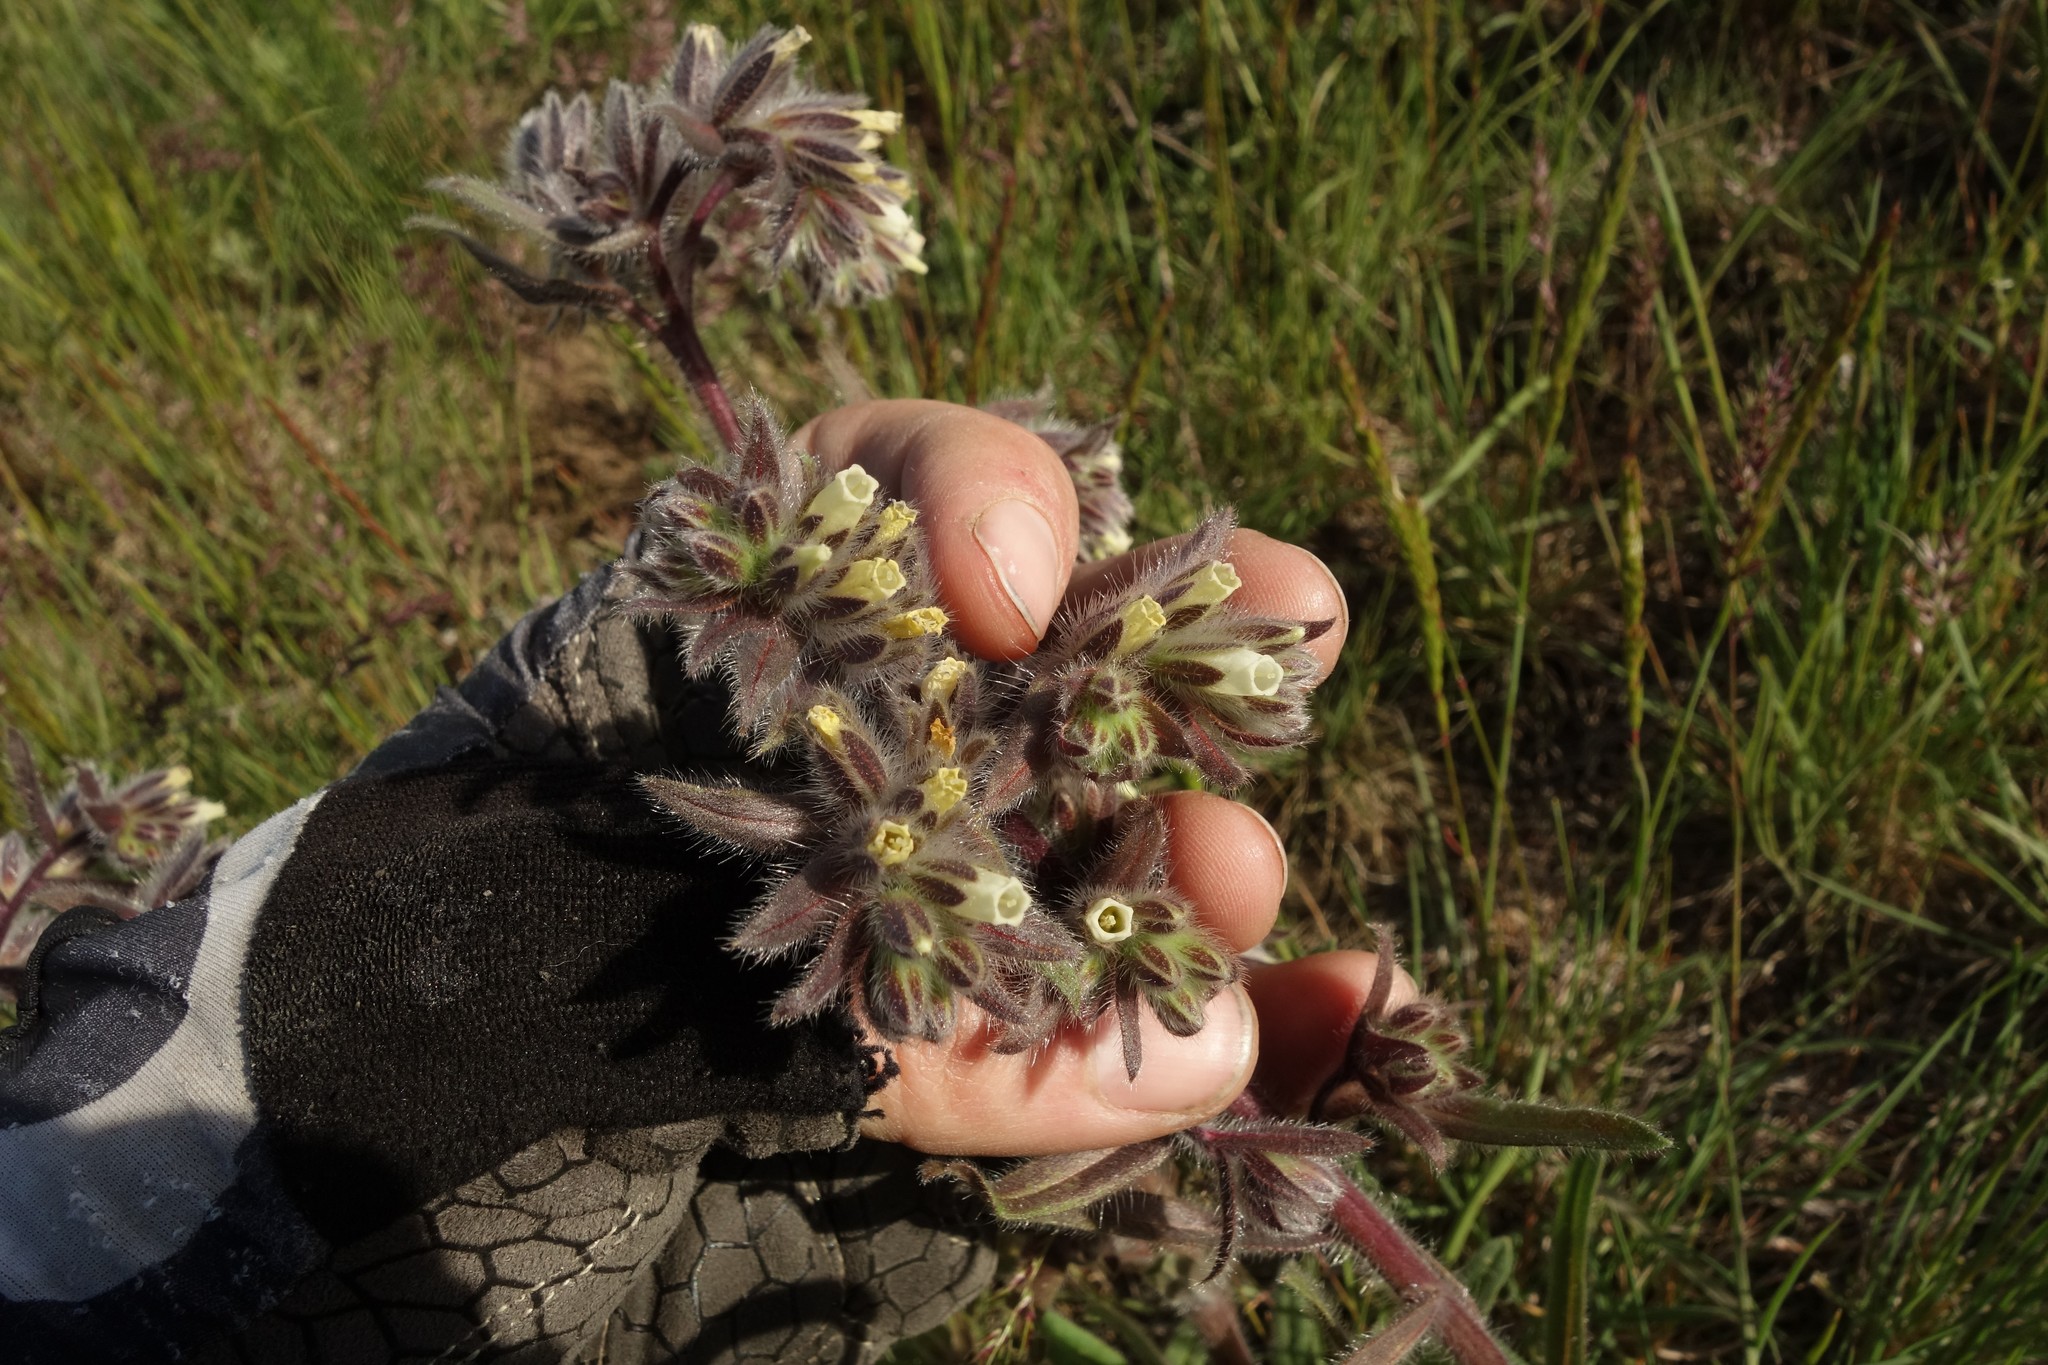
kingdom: Plantae
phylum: Tracheophyta
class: Magnoliopsida
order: Boraginales
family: Boraginaceae
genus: Onosma
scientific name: Onosma tinctoria
